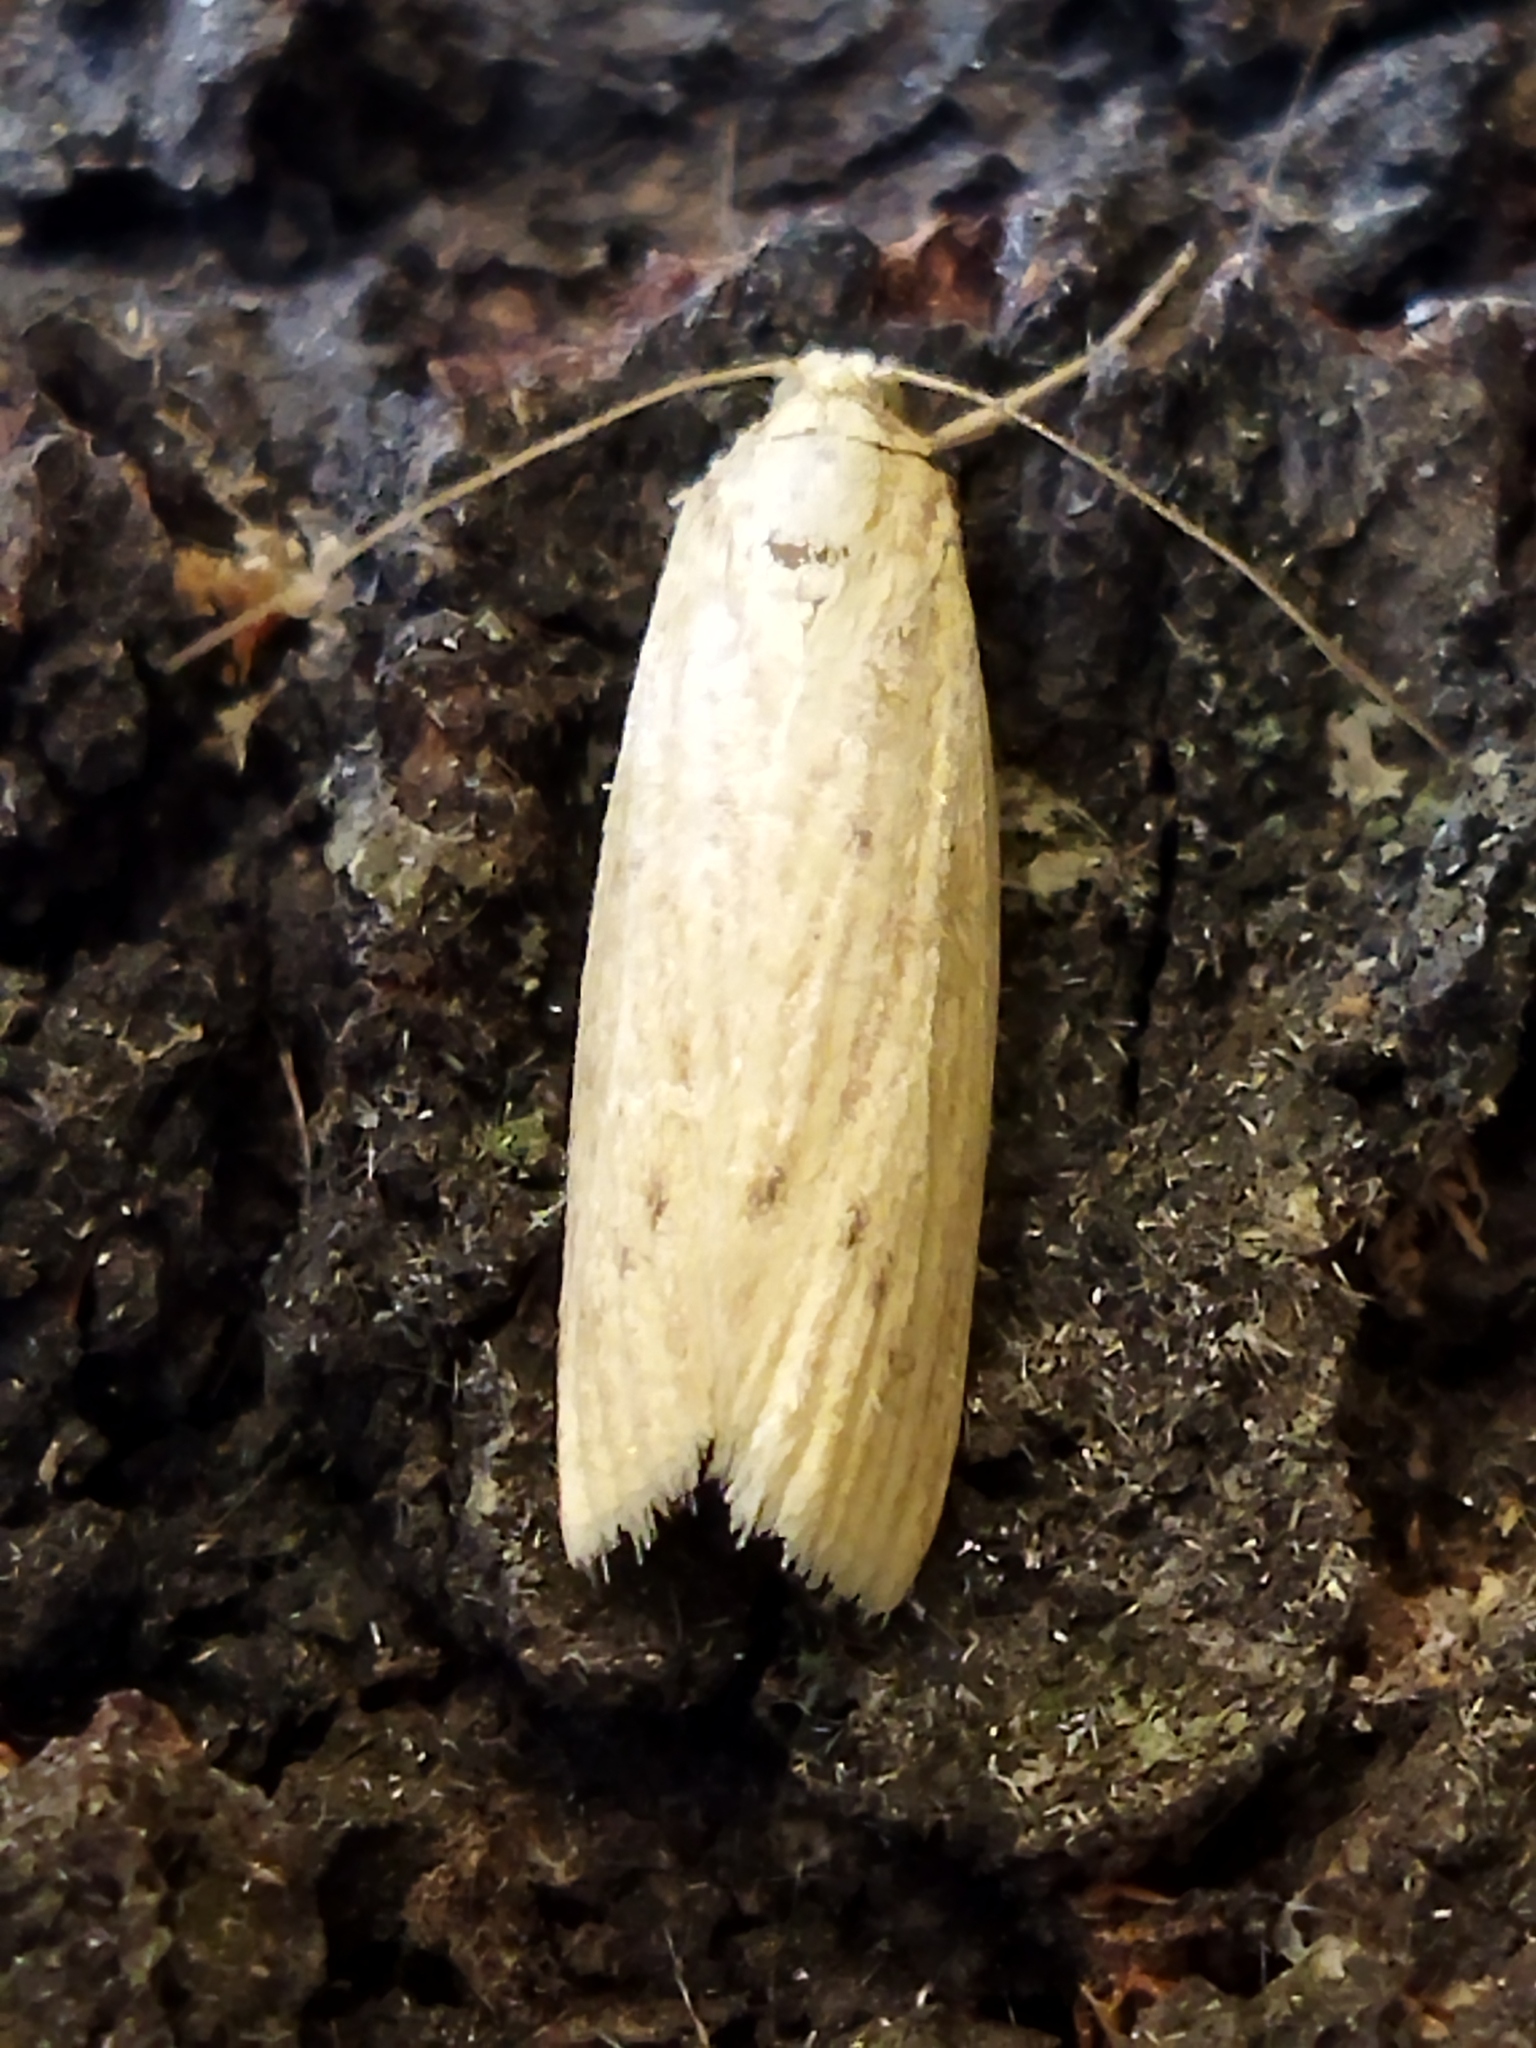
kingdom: Animalia
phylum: Arthropoda
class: Insecta
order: Lepidoptera
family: Pyralidae
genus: Ematheudes
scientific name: Ematheudes punctellus
